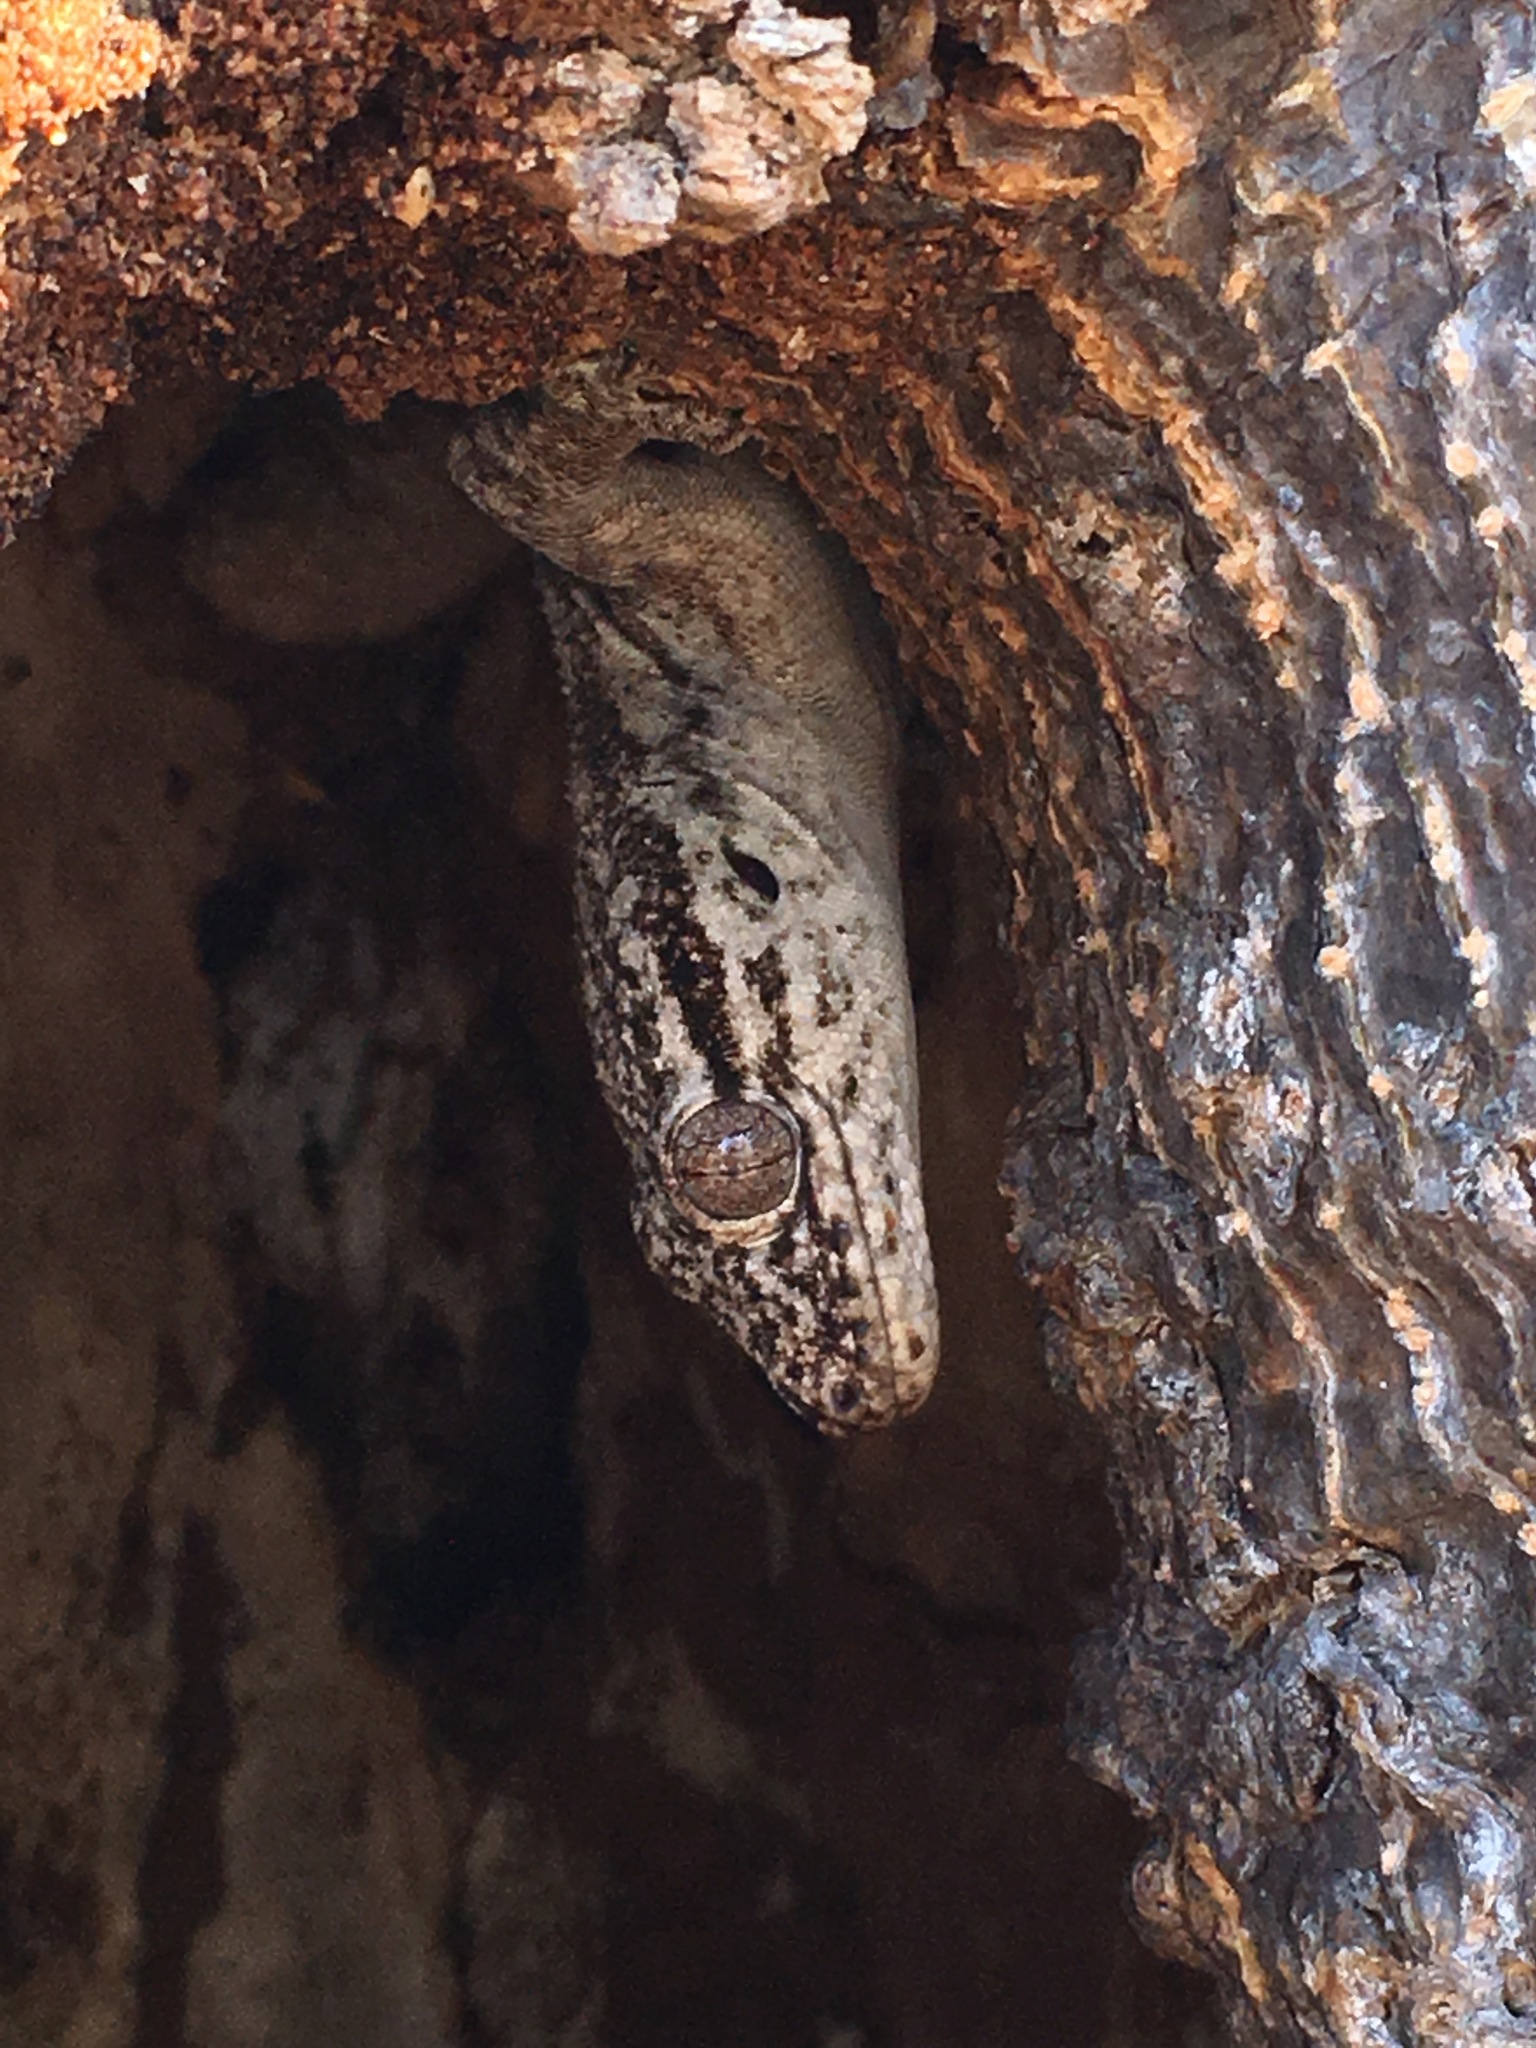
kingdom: Animalia
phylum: Chordata
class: Squamata
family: Gekkonidae
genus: Blaesodactylus
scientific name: Blaesodactylus sakalava
